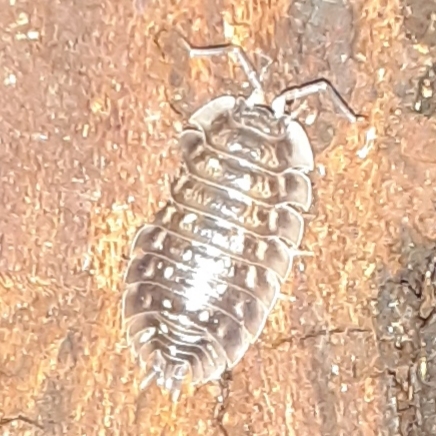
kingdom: Animalia
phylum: Arthropoda
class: Malacostraca
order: Isopoda
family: Oniscidae
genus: Oniscus
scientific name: Oniscus asellus
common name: Common shiny woodlouse
